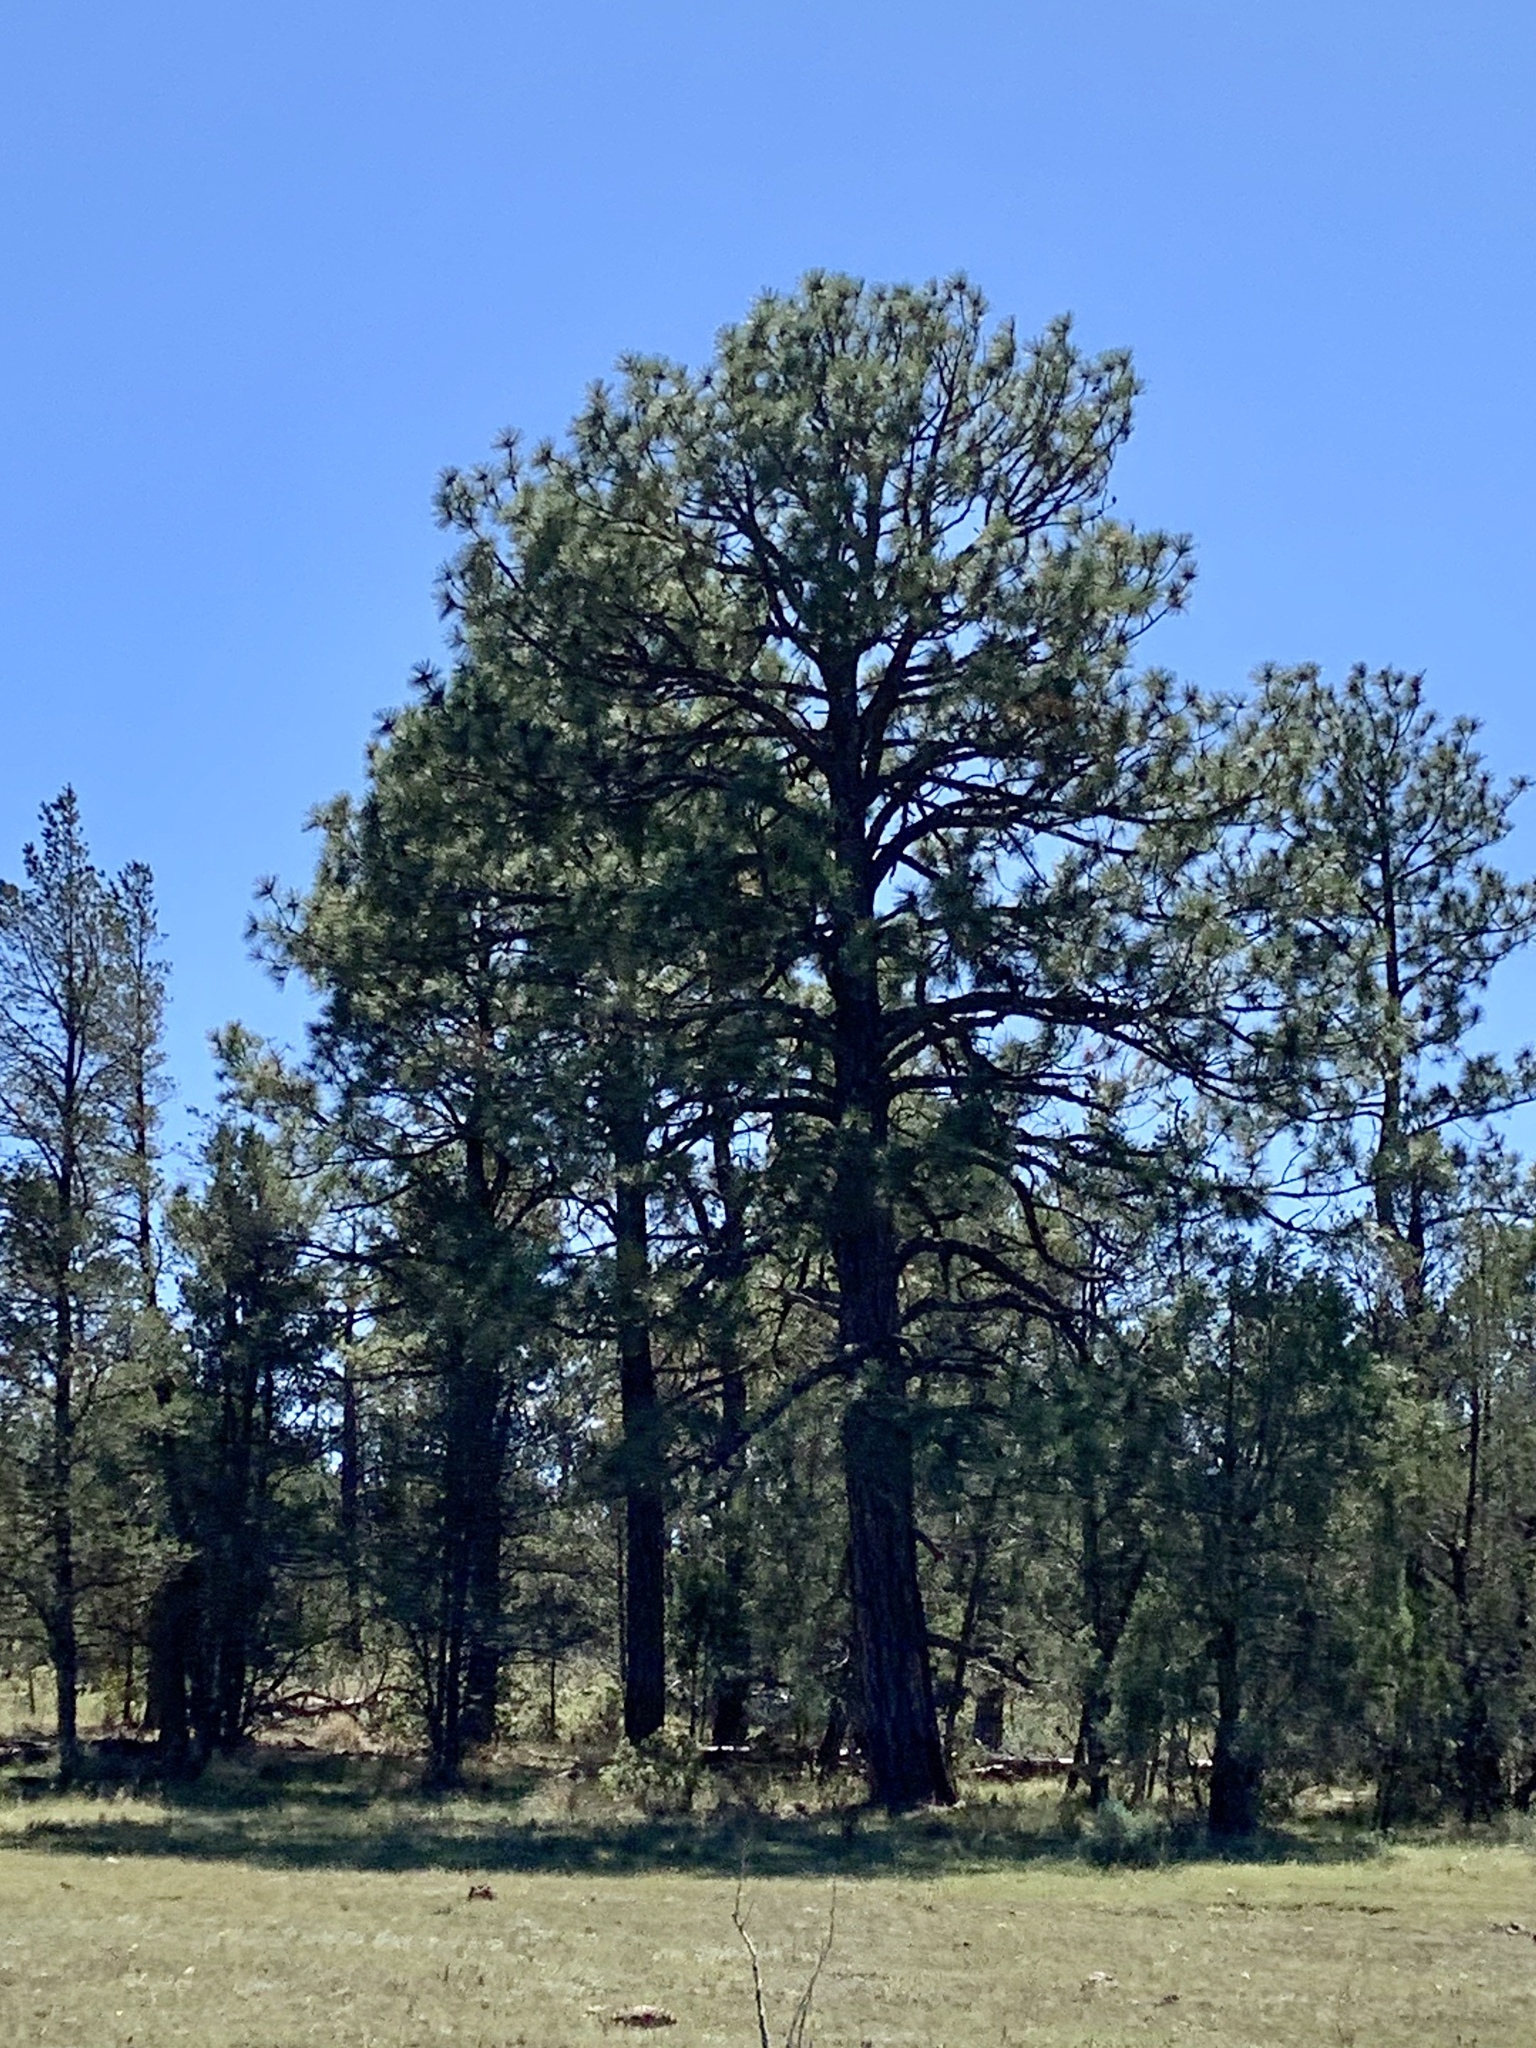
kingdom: Plantae
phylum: Tracheophyta
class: Pinopsida
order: Pinales
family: Pinaceae
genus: Pinus
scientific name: Pinus ponderosa
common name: Western yellow-pine
